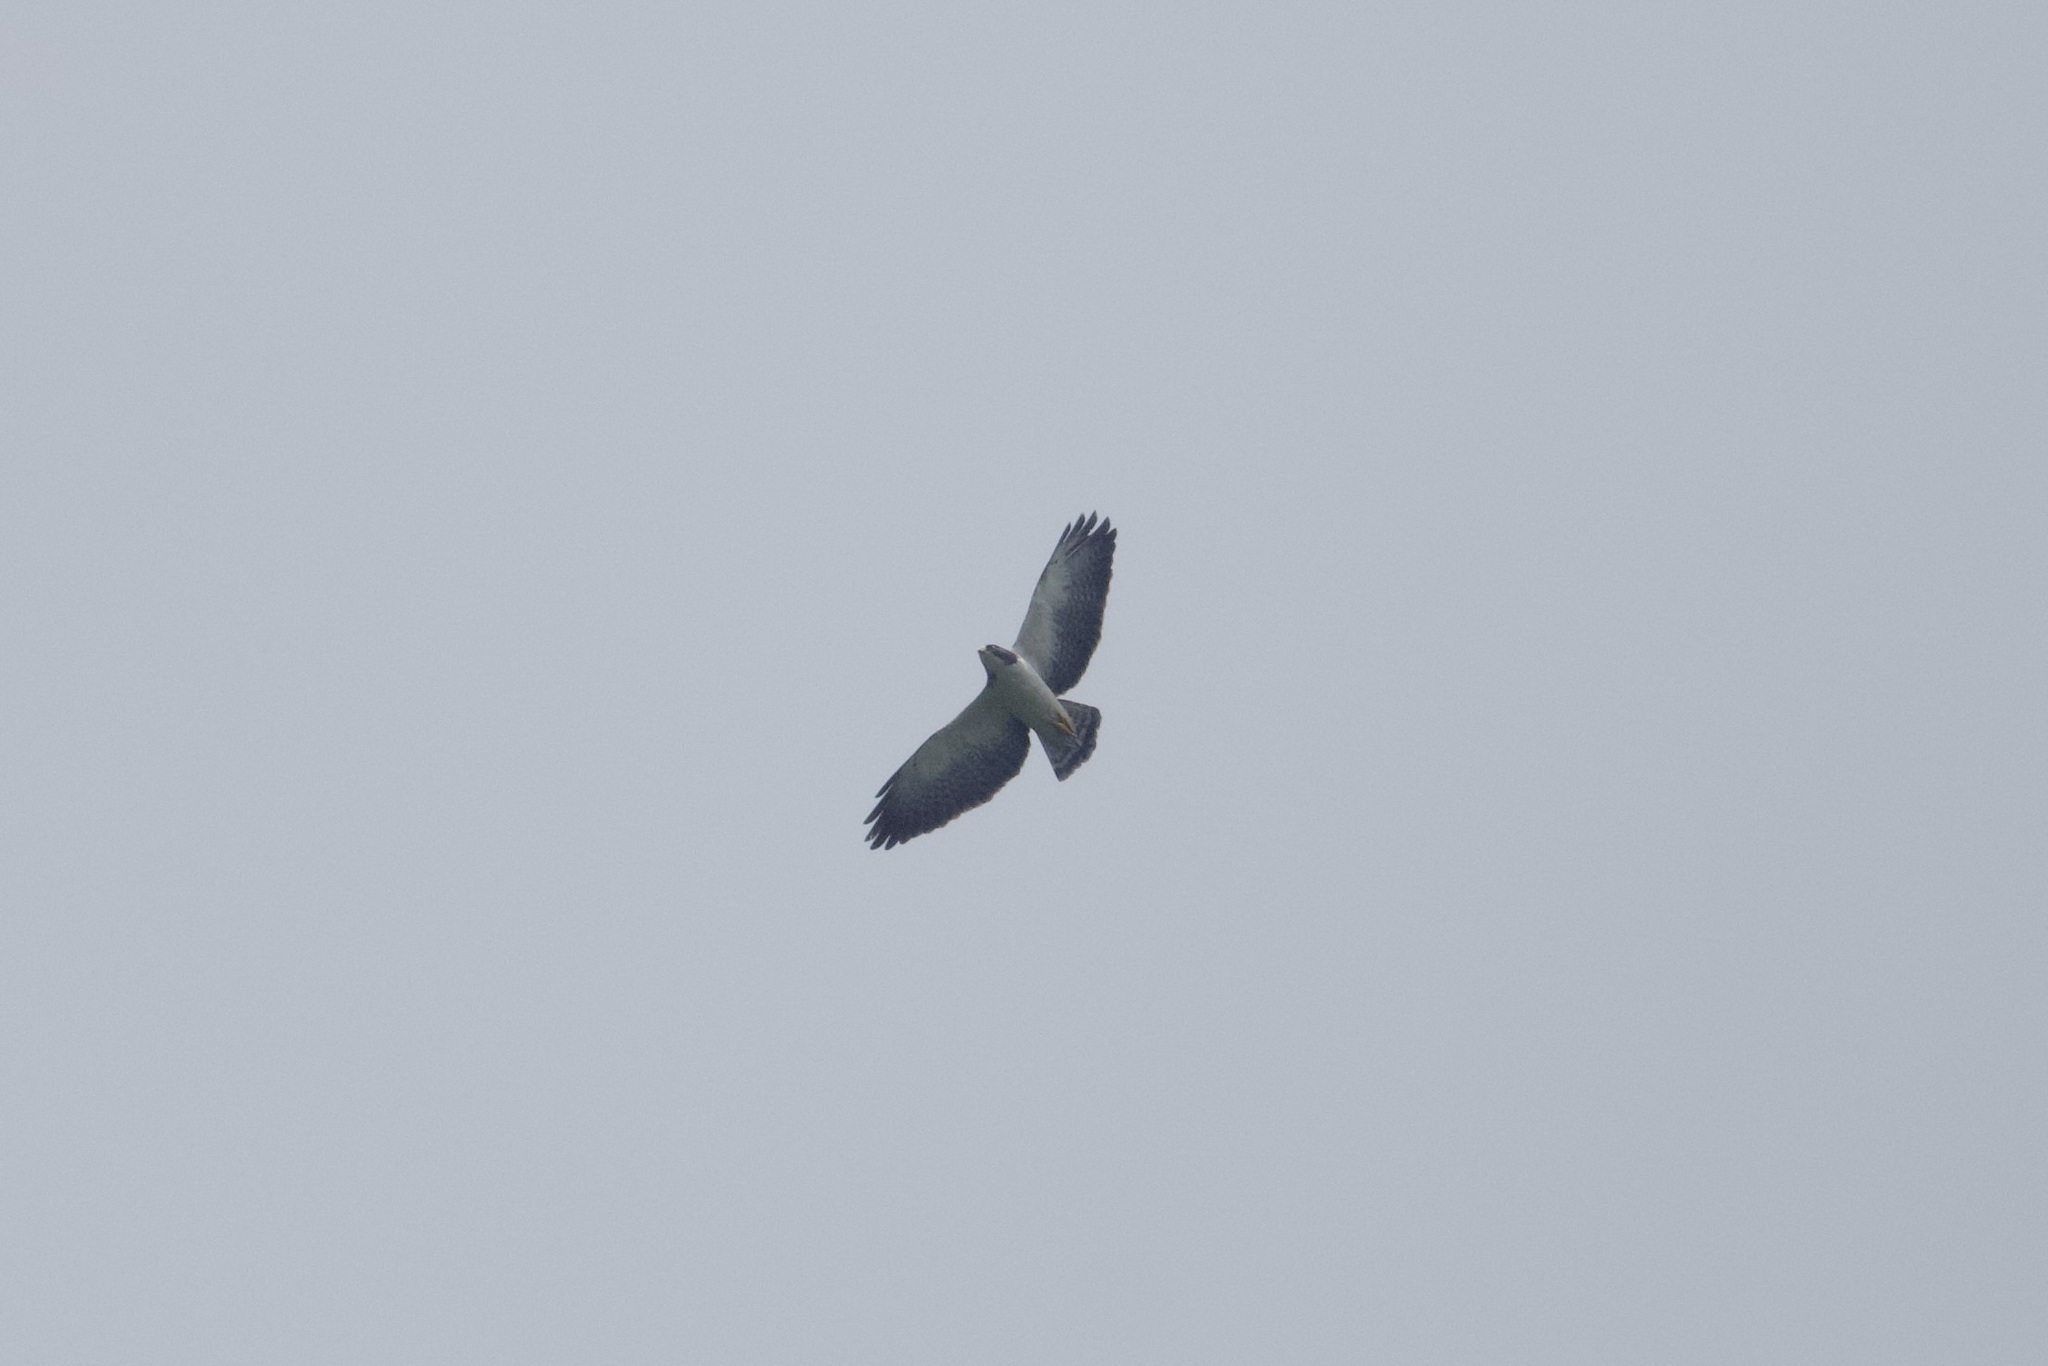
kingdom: Animalia
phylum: Chordata
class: Aves
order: Accipitriformes
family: Accipitridae
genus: Buteo
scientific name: Buteo brachyurus
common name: Short-tailed hawk
